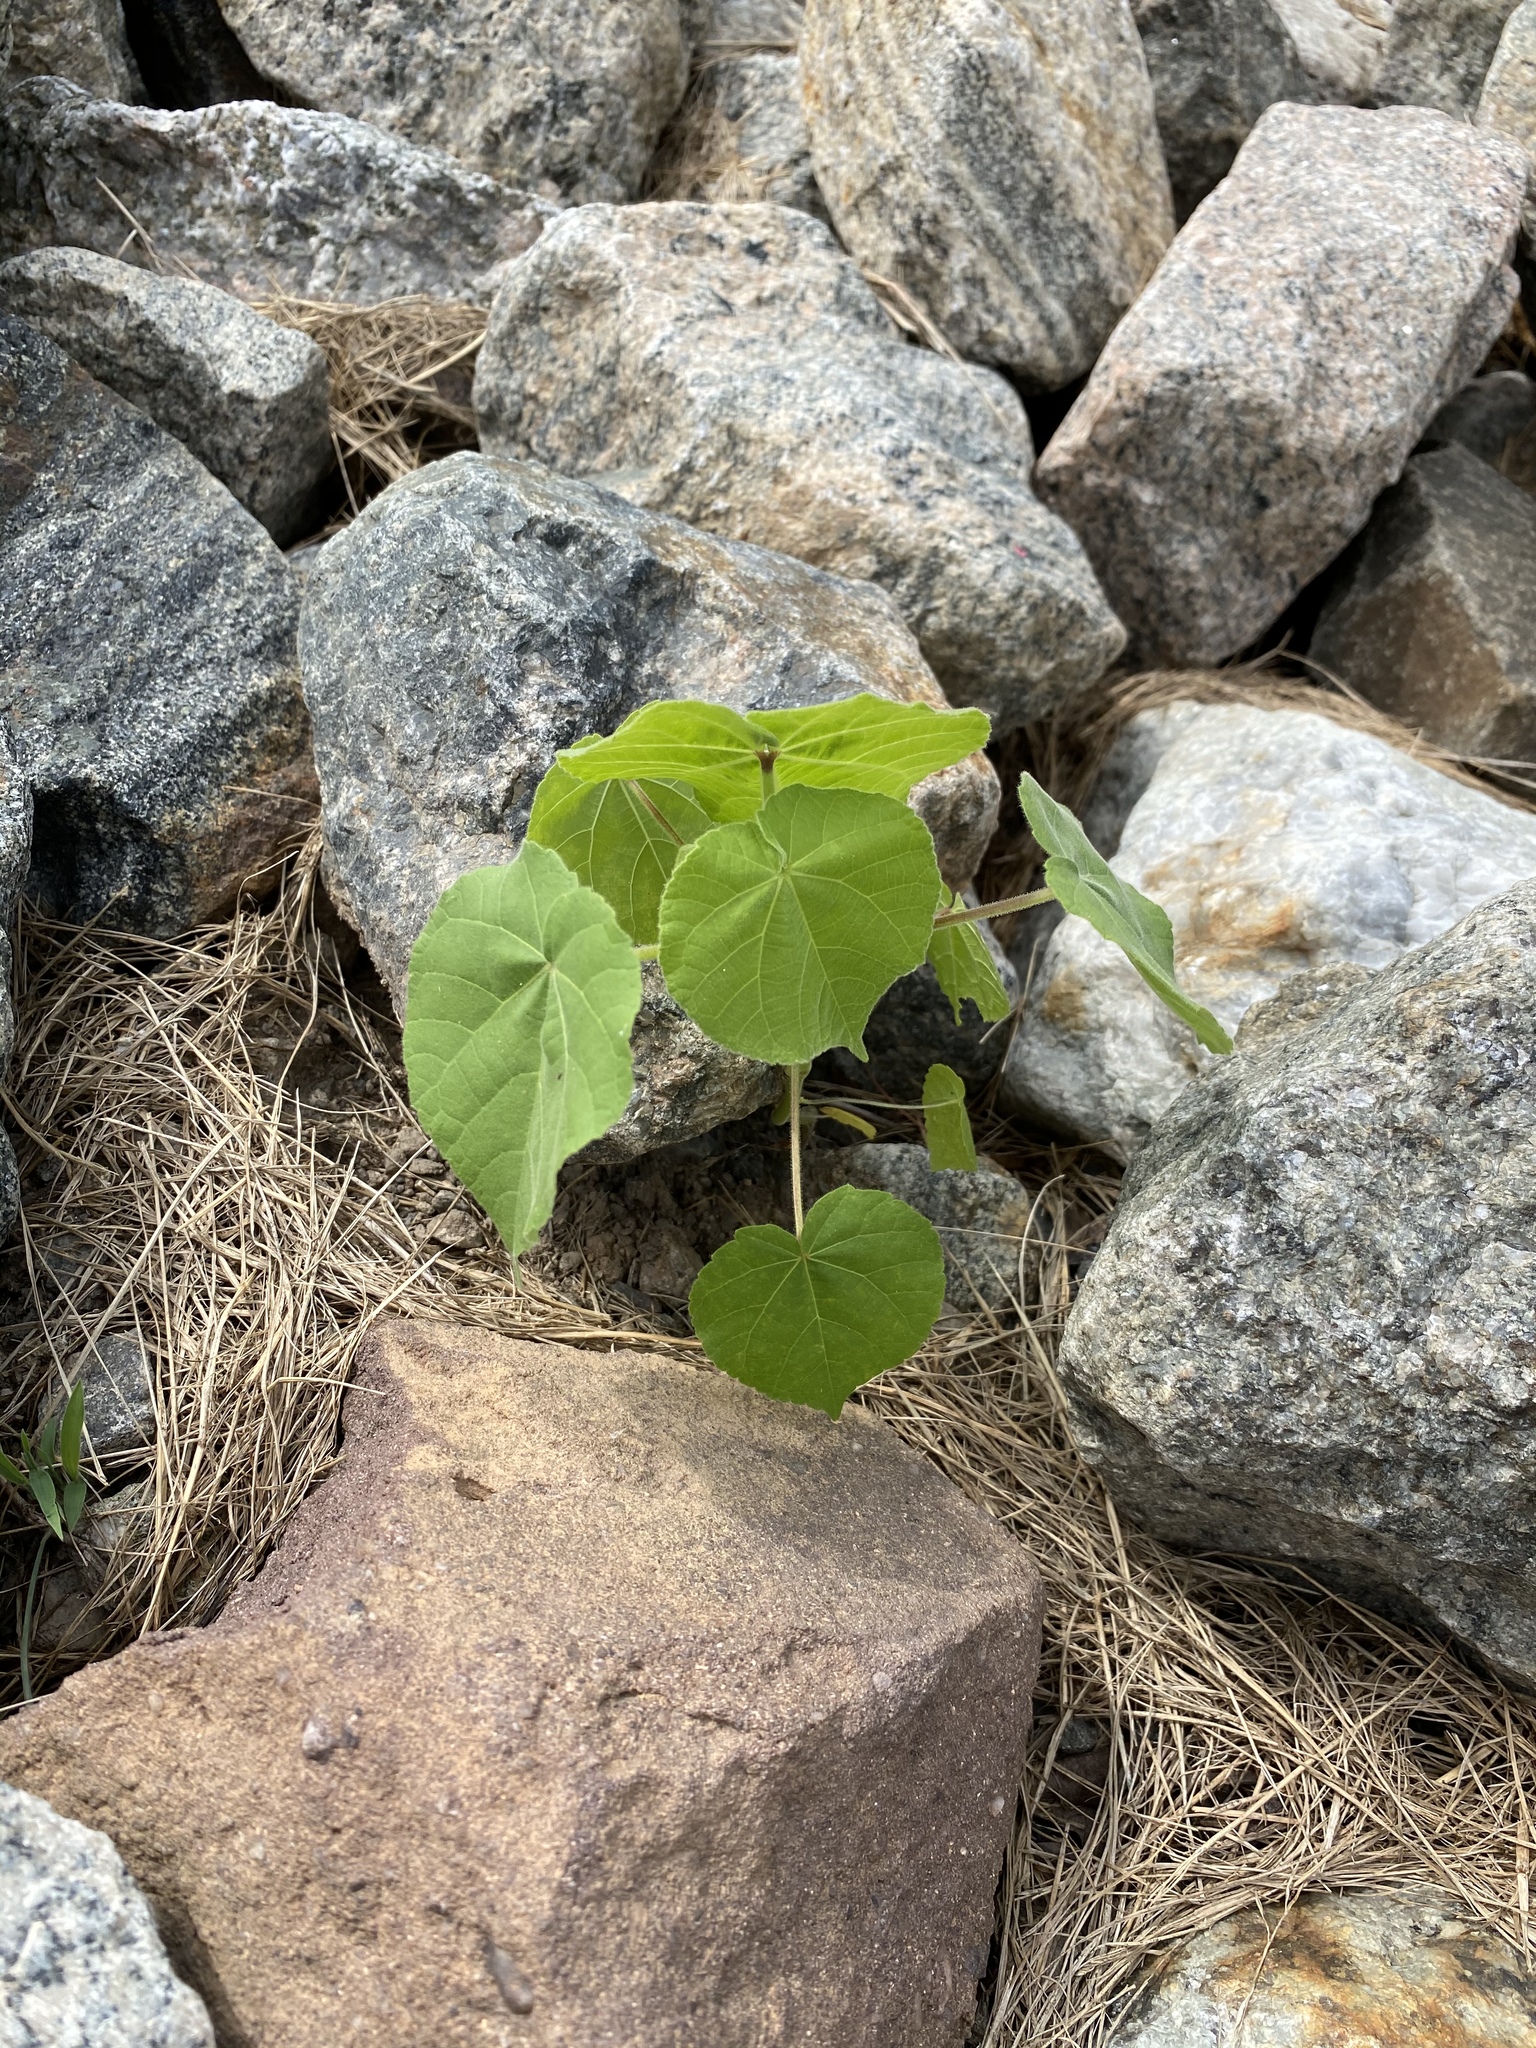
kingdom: Plantae
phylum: Tracheophyta
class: Magnoliopsida
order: Malvales
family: Malvaceae
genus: Abutilon
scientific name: Abutilon theophrasti
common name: Velvetleaf
